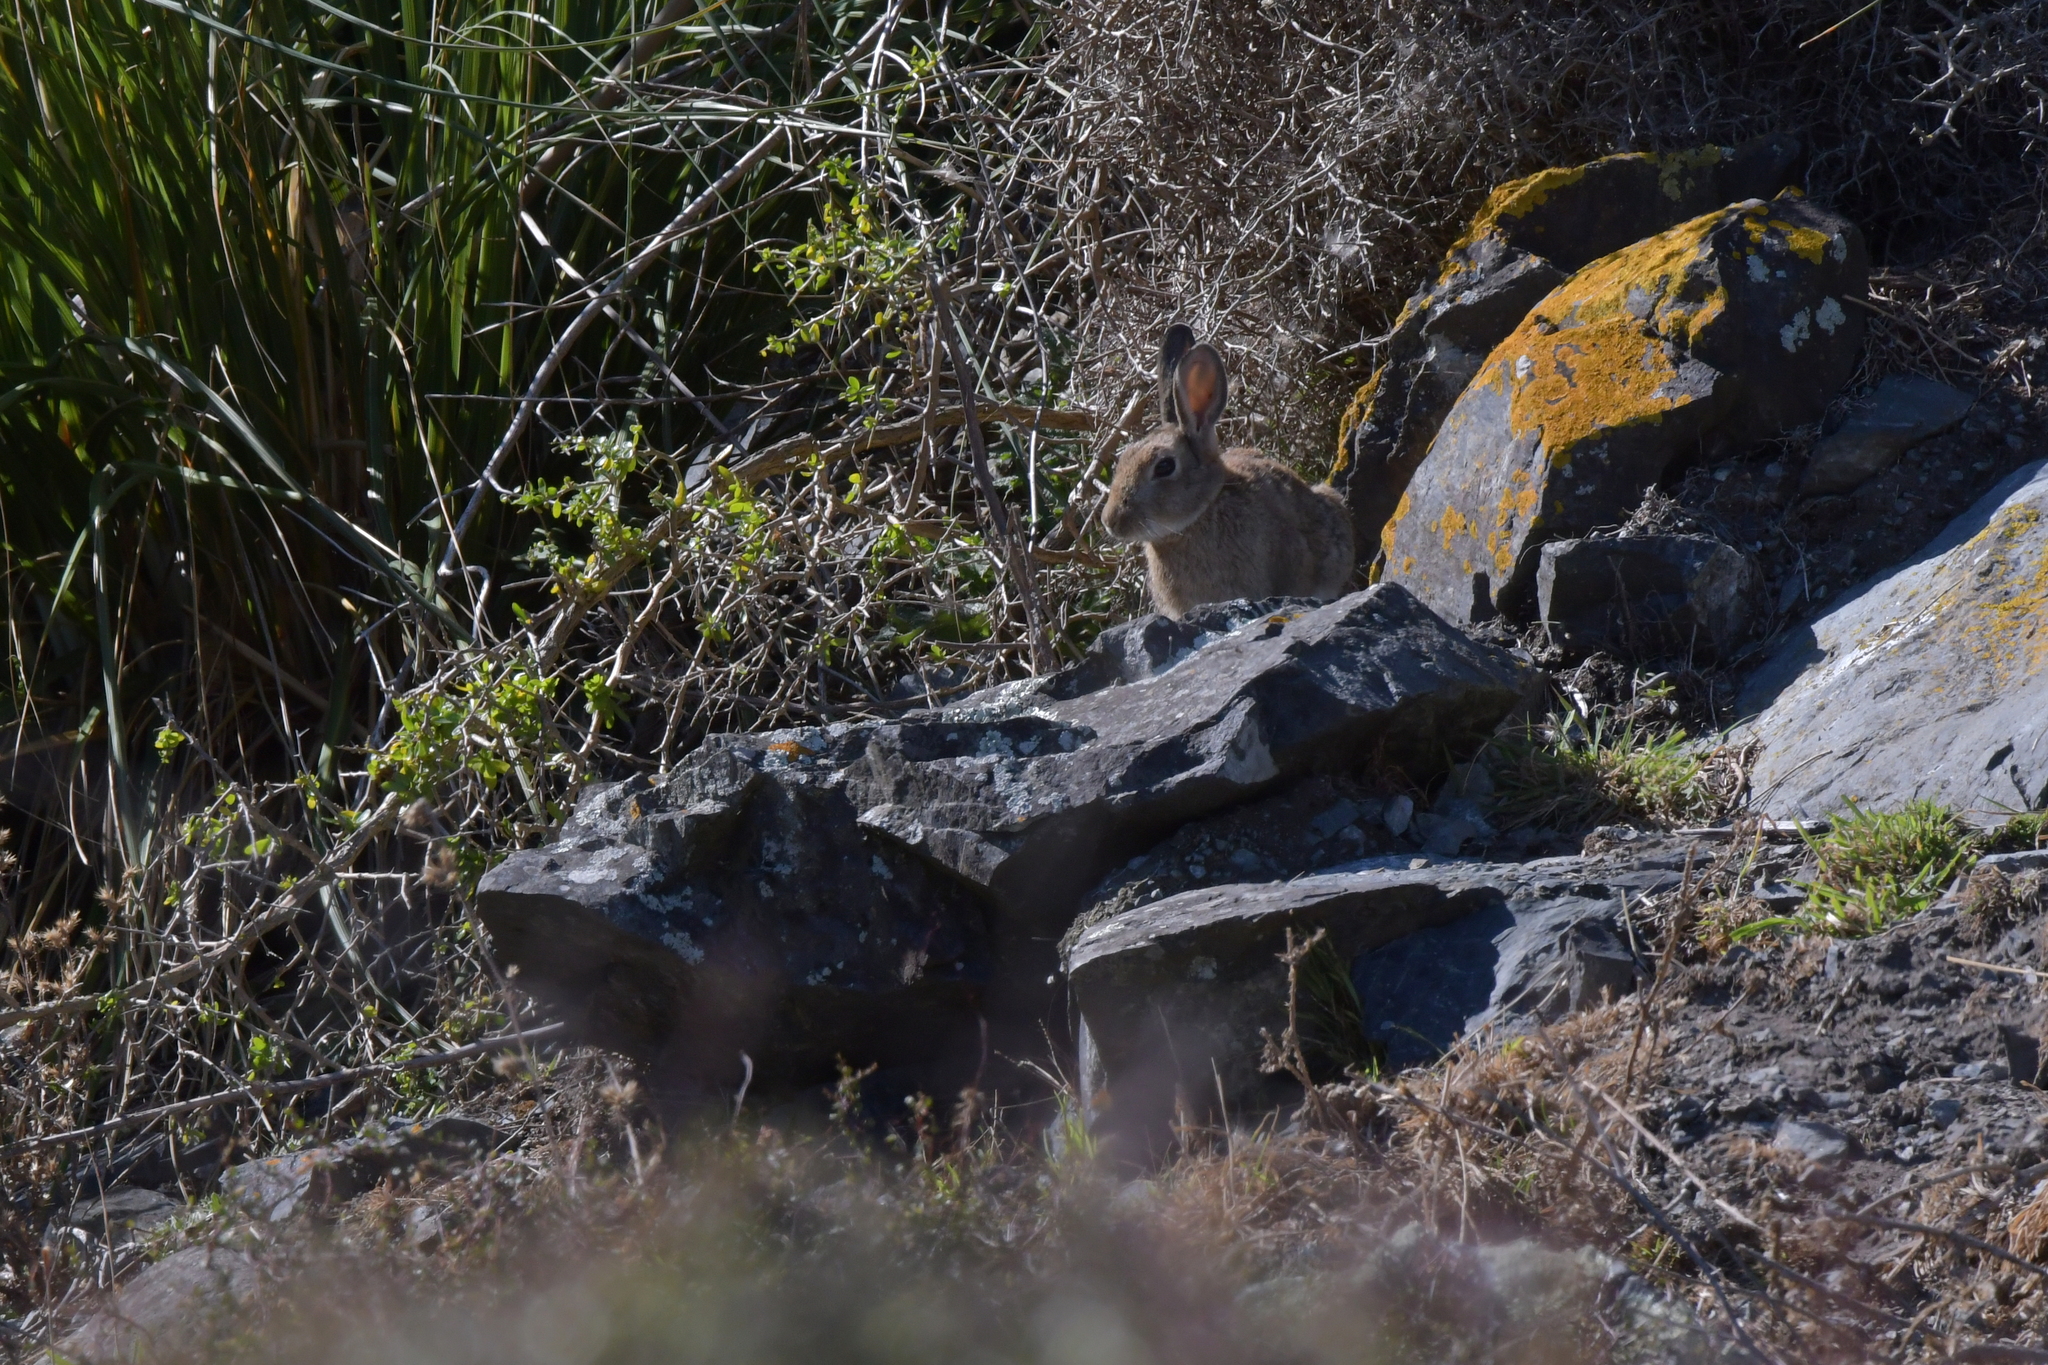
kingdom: Animalia
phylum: Chordata
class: Mammalia
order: Lagomorpha
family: Leporidae
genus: Oryctolagus
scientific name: Oryctolagus cuniculus
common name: European rabbit
